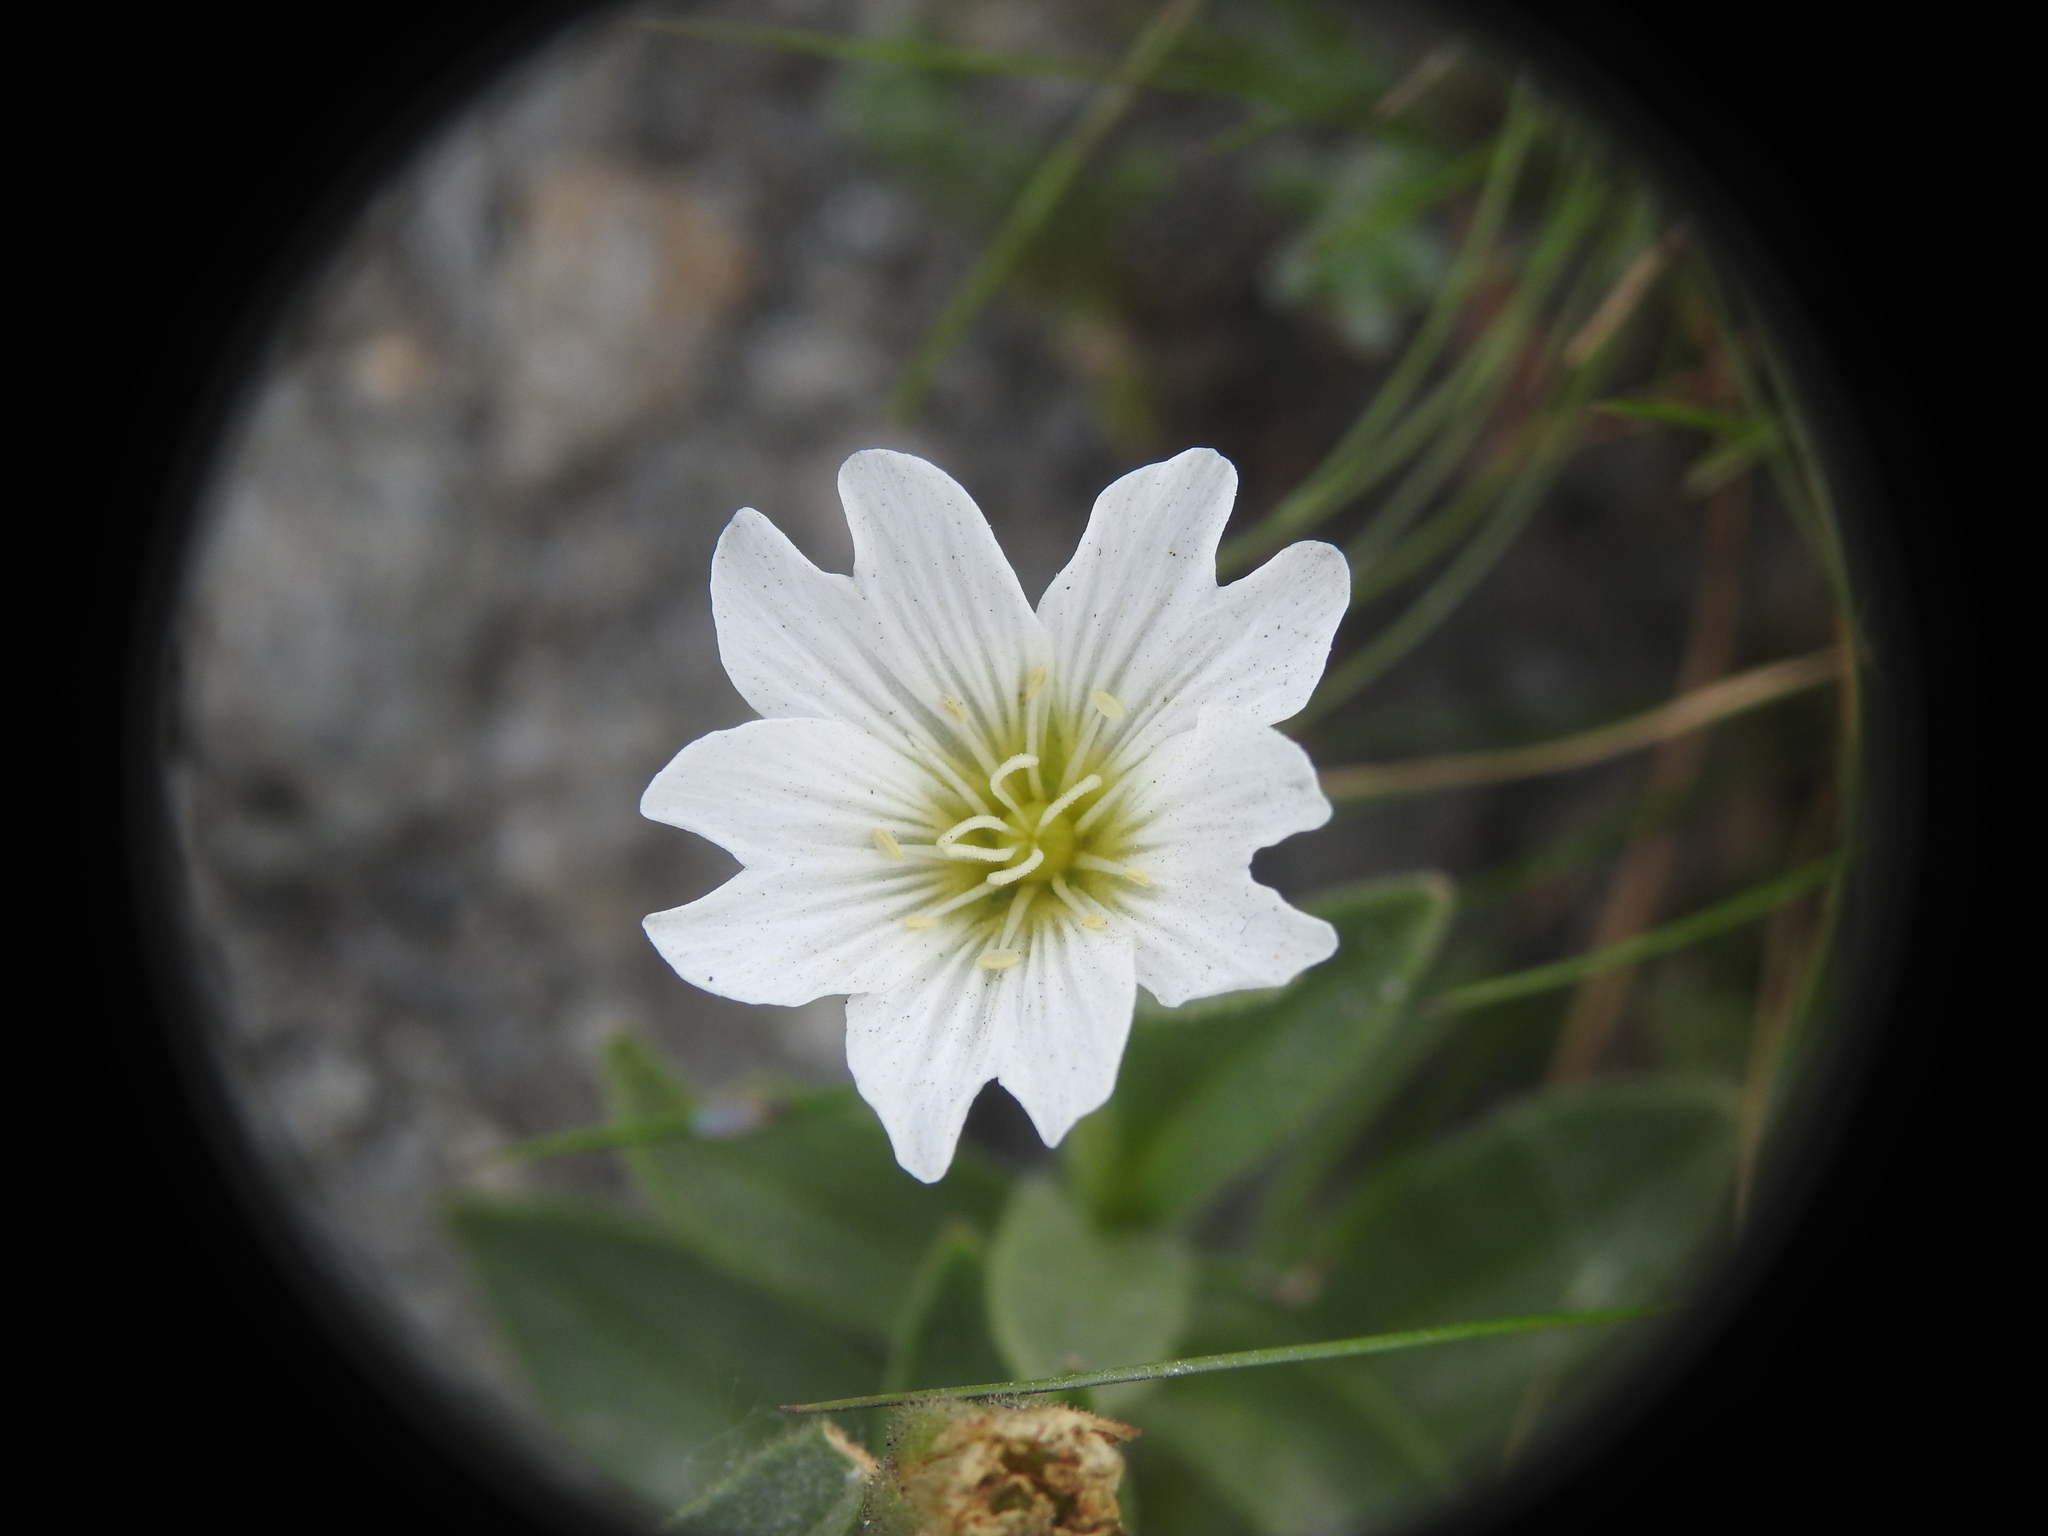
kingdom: Plantae
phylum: Tracheophyta
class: Magnoliopsida
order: Caryophyllales
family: Caryophyllaceae
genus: Cerastium
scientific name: Cerastium latifolium
